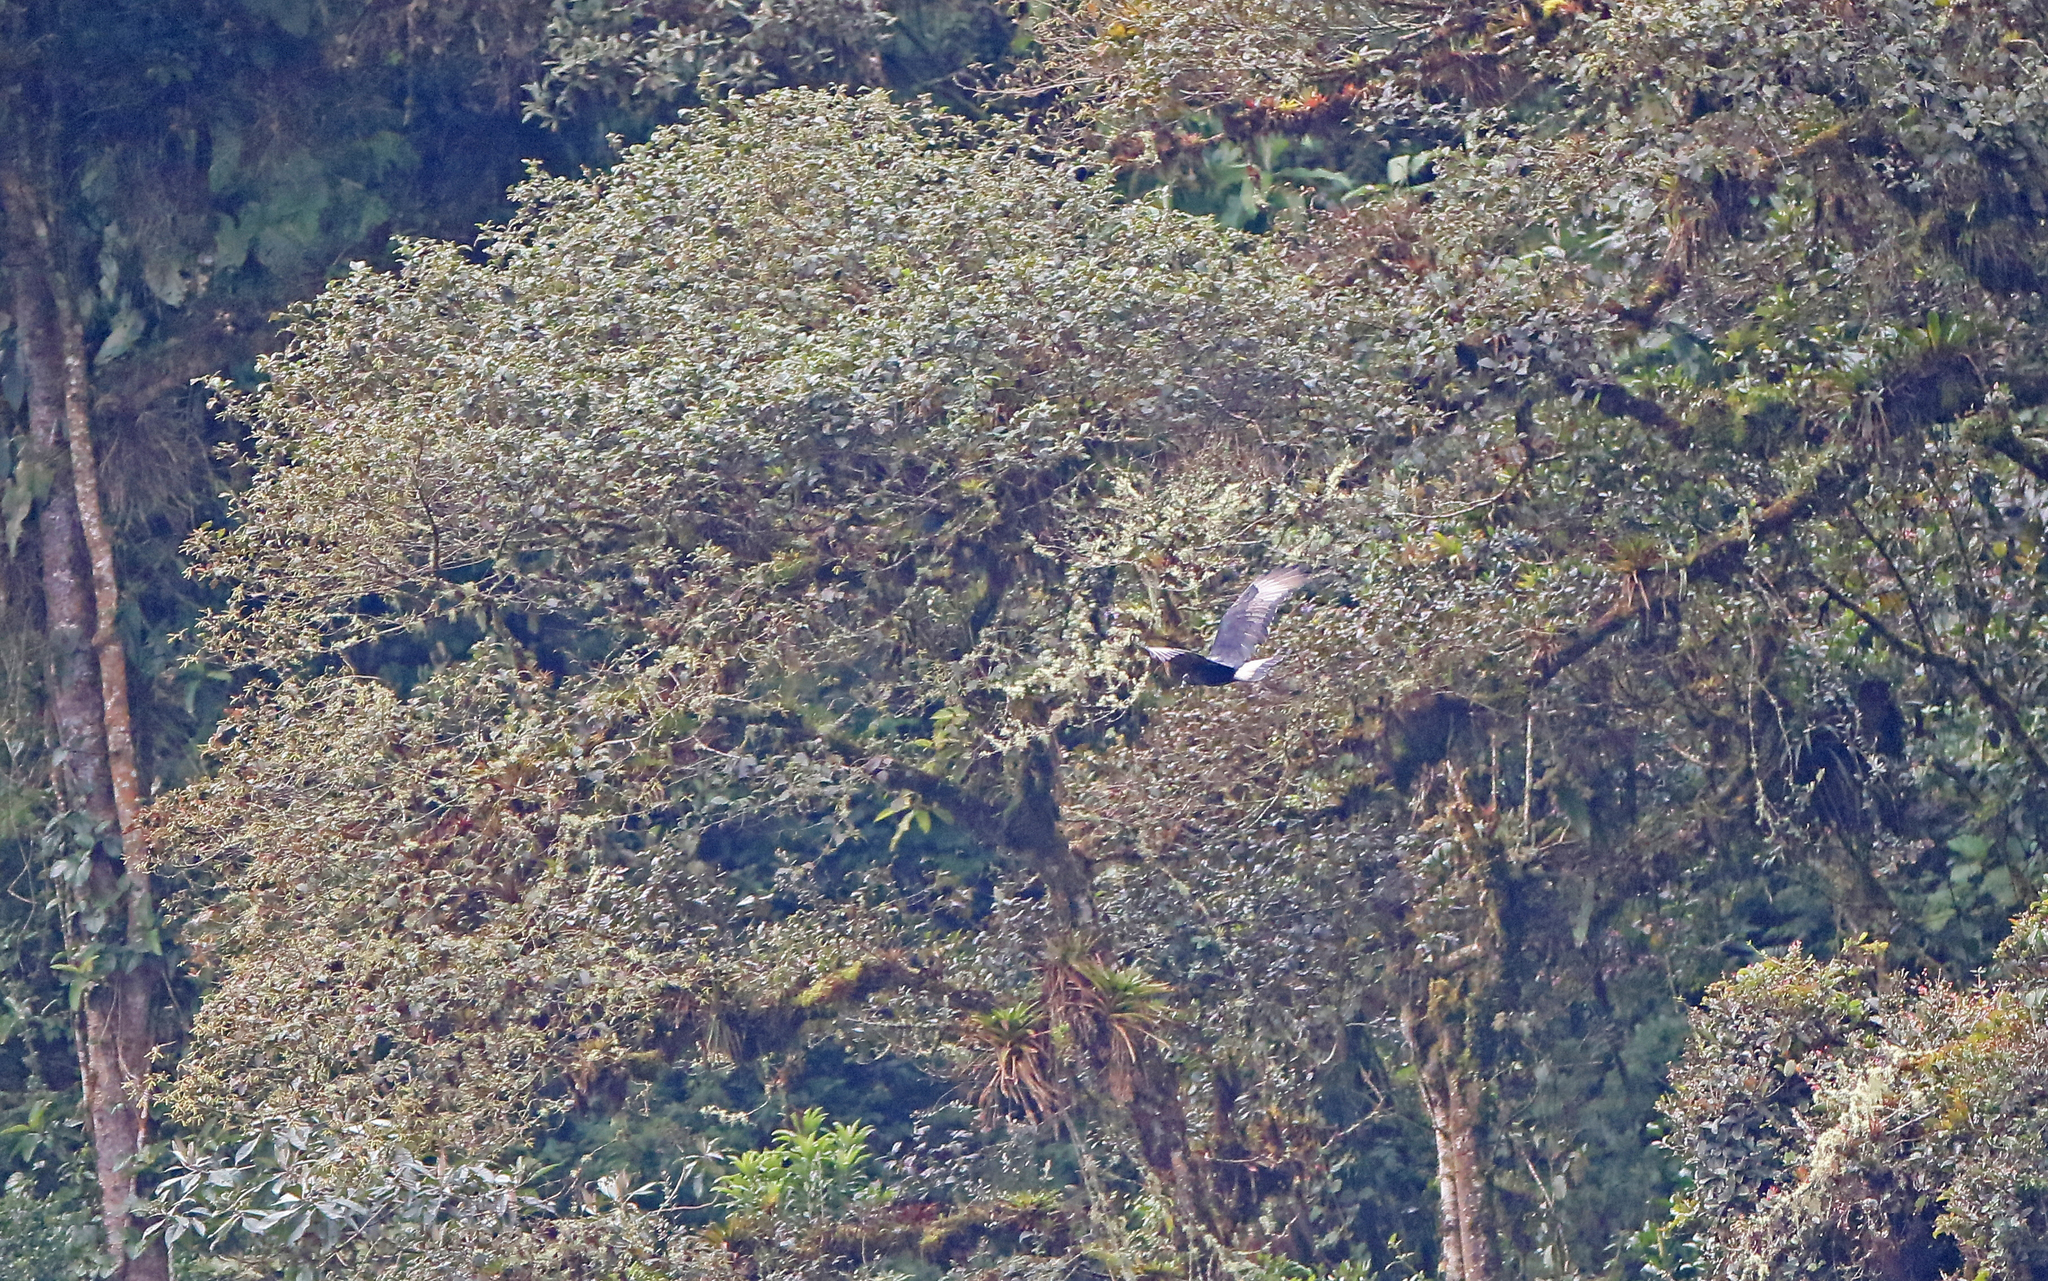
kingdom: Animalia
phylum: Chordata
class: Aves
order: Accipitriformes
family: Accipitridae
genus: Spizaetus
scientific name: Spizaetus isidori
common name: Black-and-chestnut eagle
